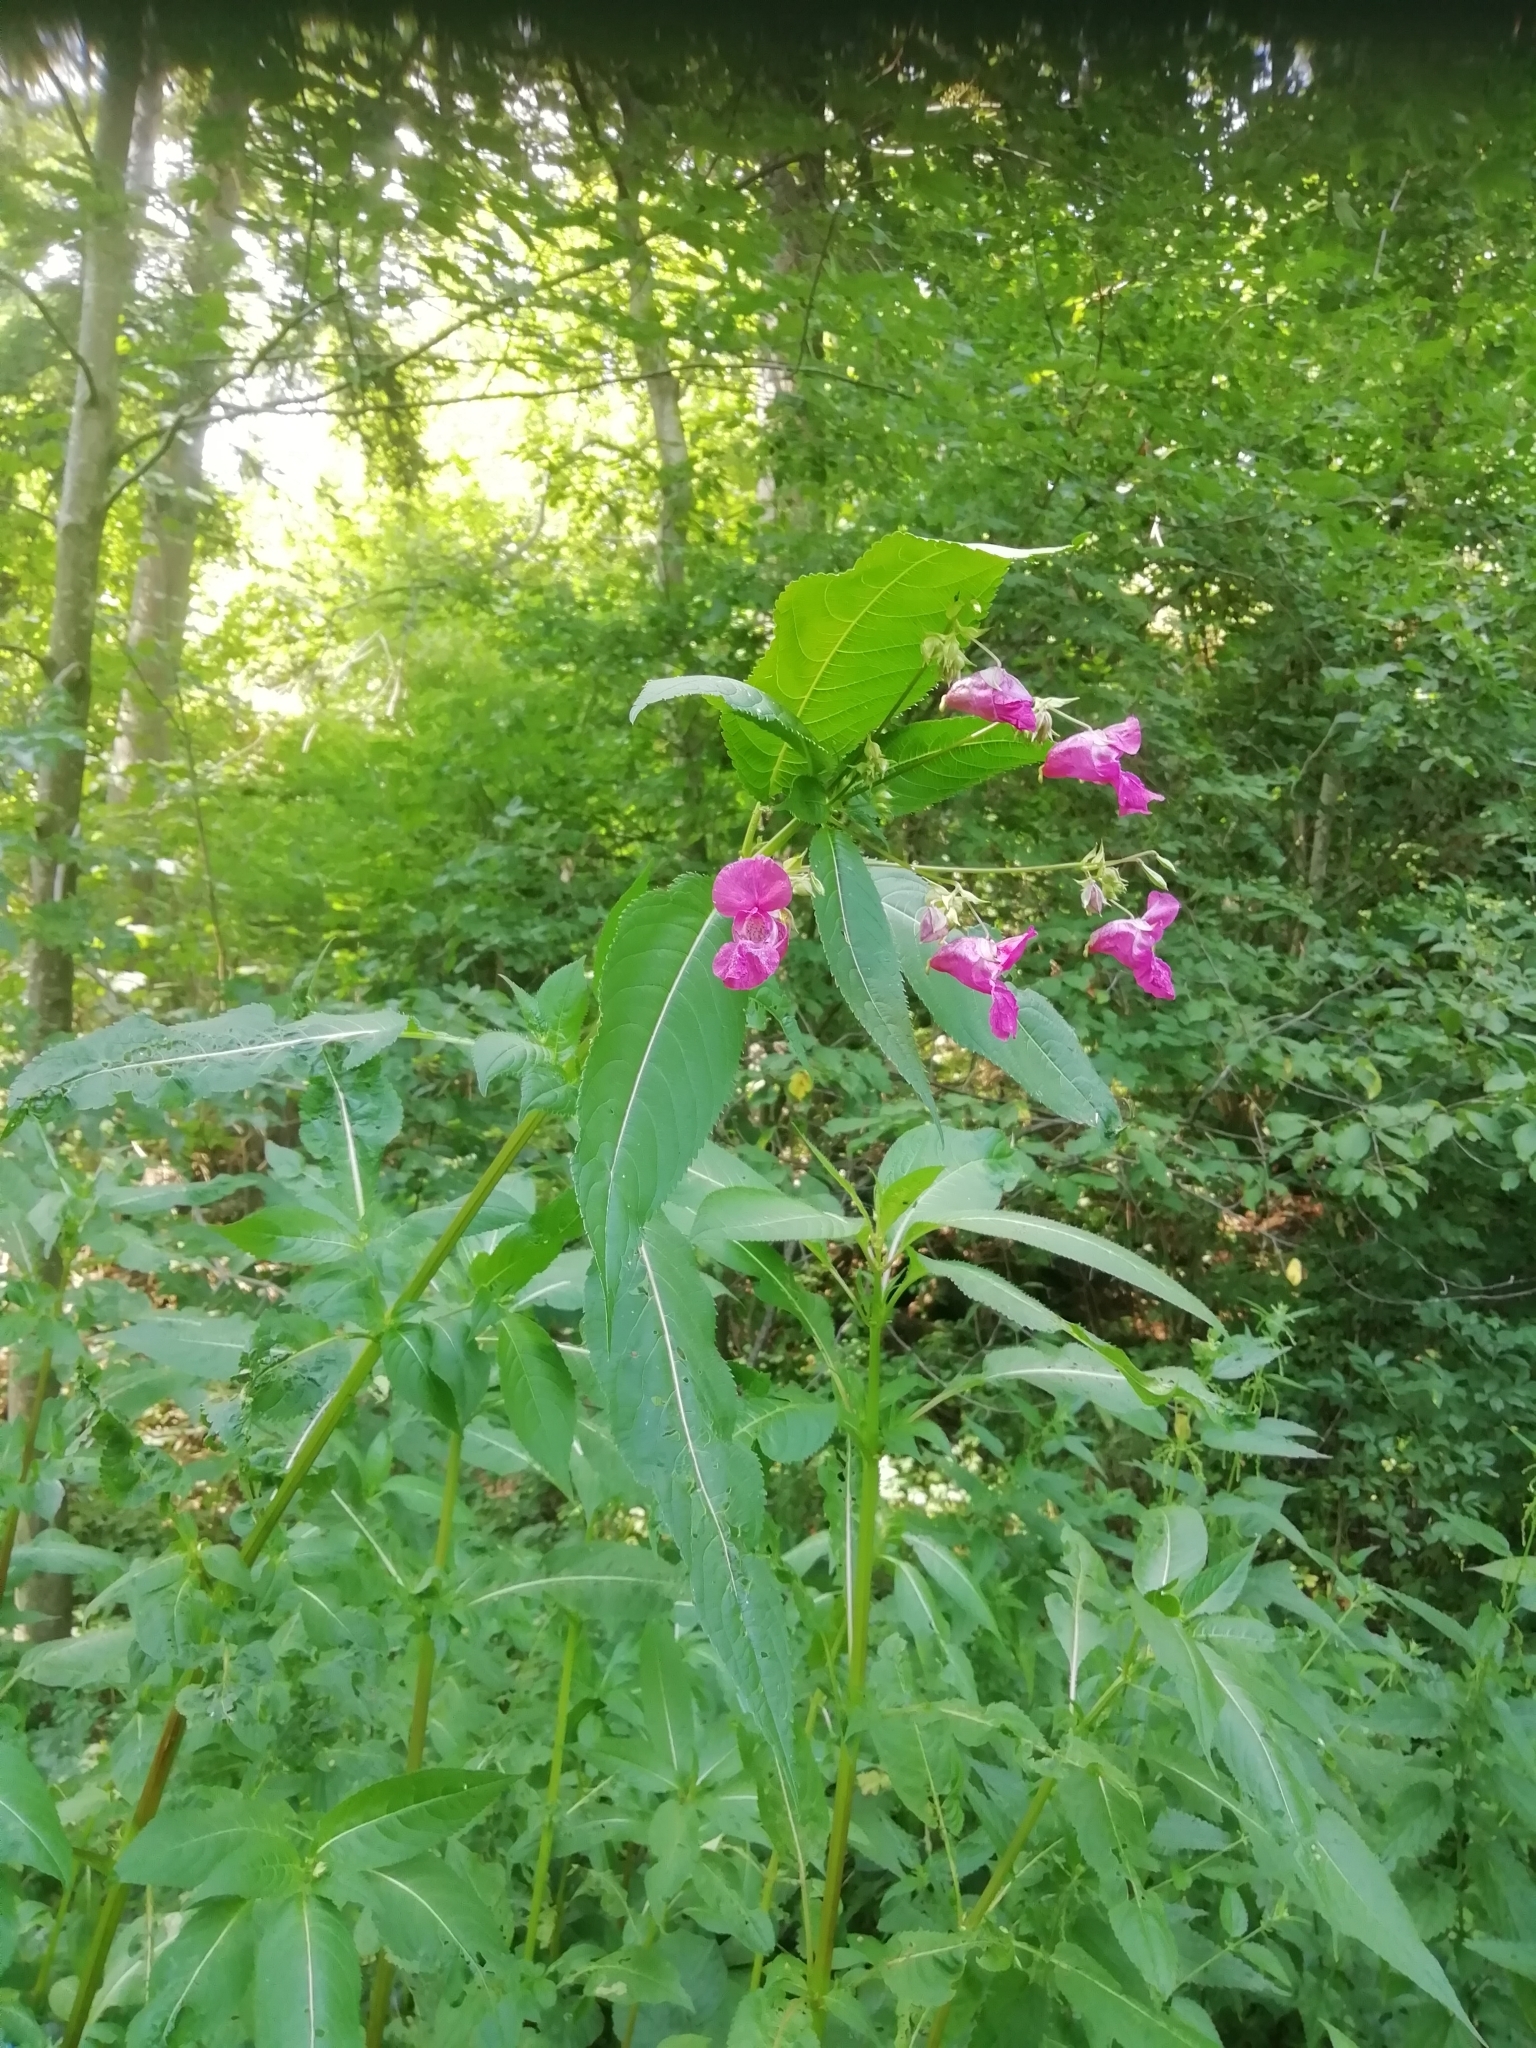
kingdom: Plantae
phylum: Tracheophyta
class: Magnoliopsida
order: Ericales
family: Balsaminaceae
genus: Impatiens
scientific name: Impatiens glandulifera
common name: Himalayan balsam
